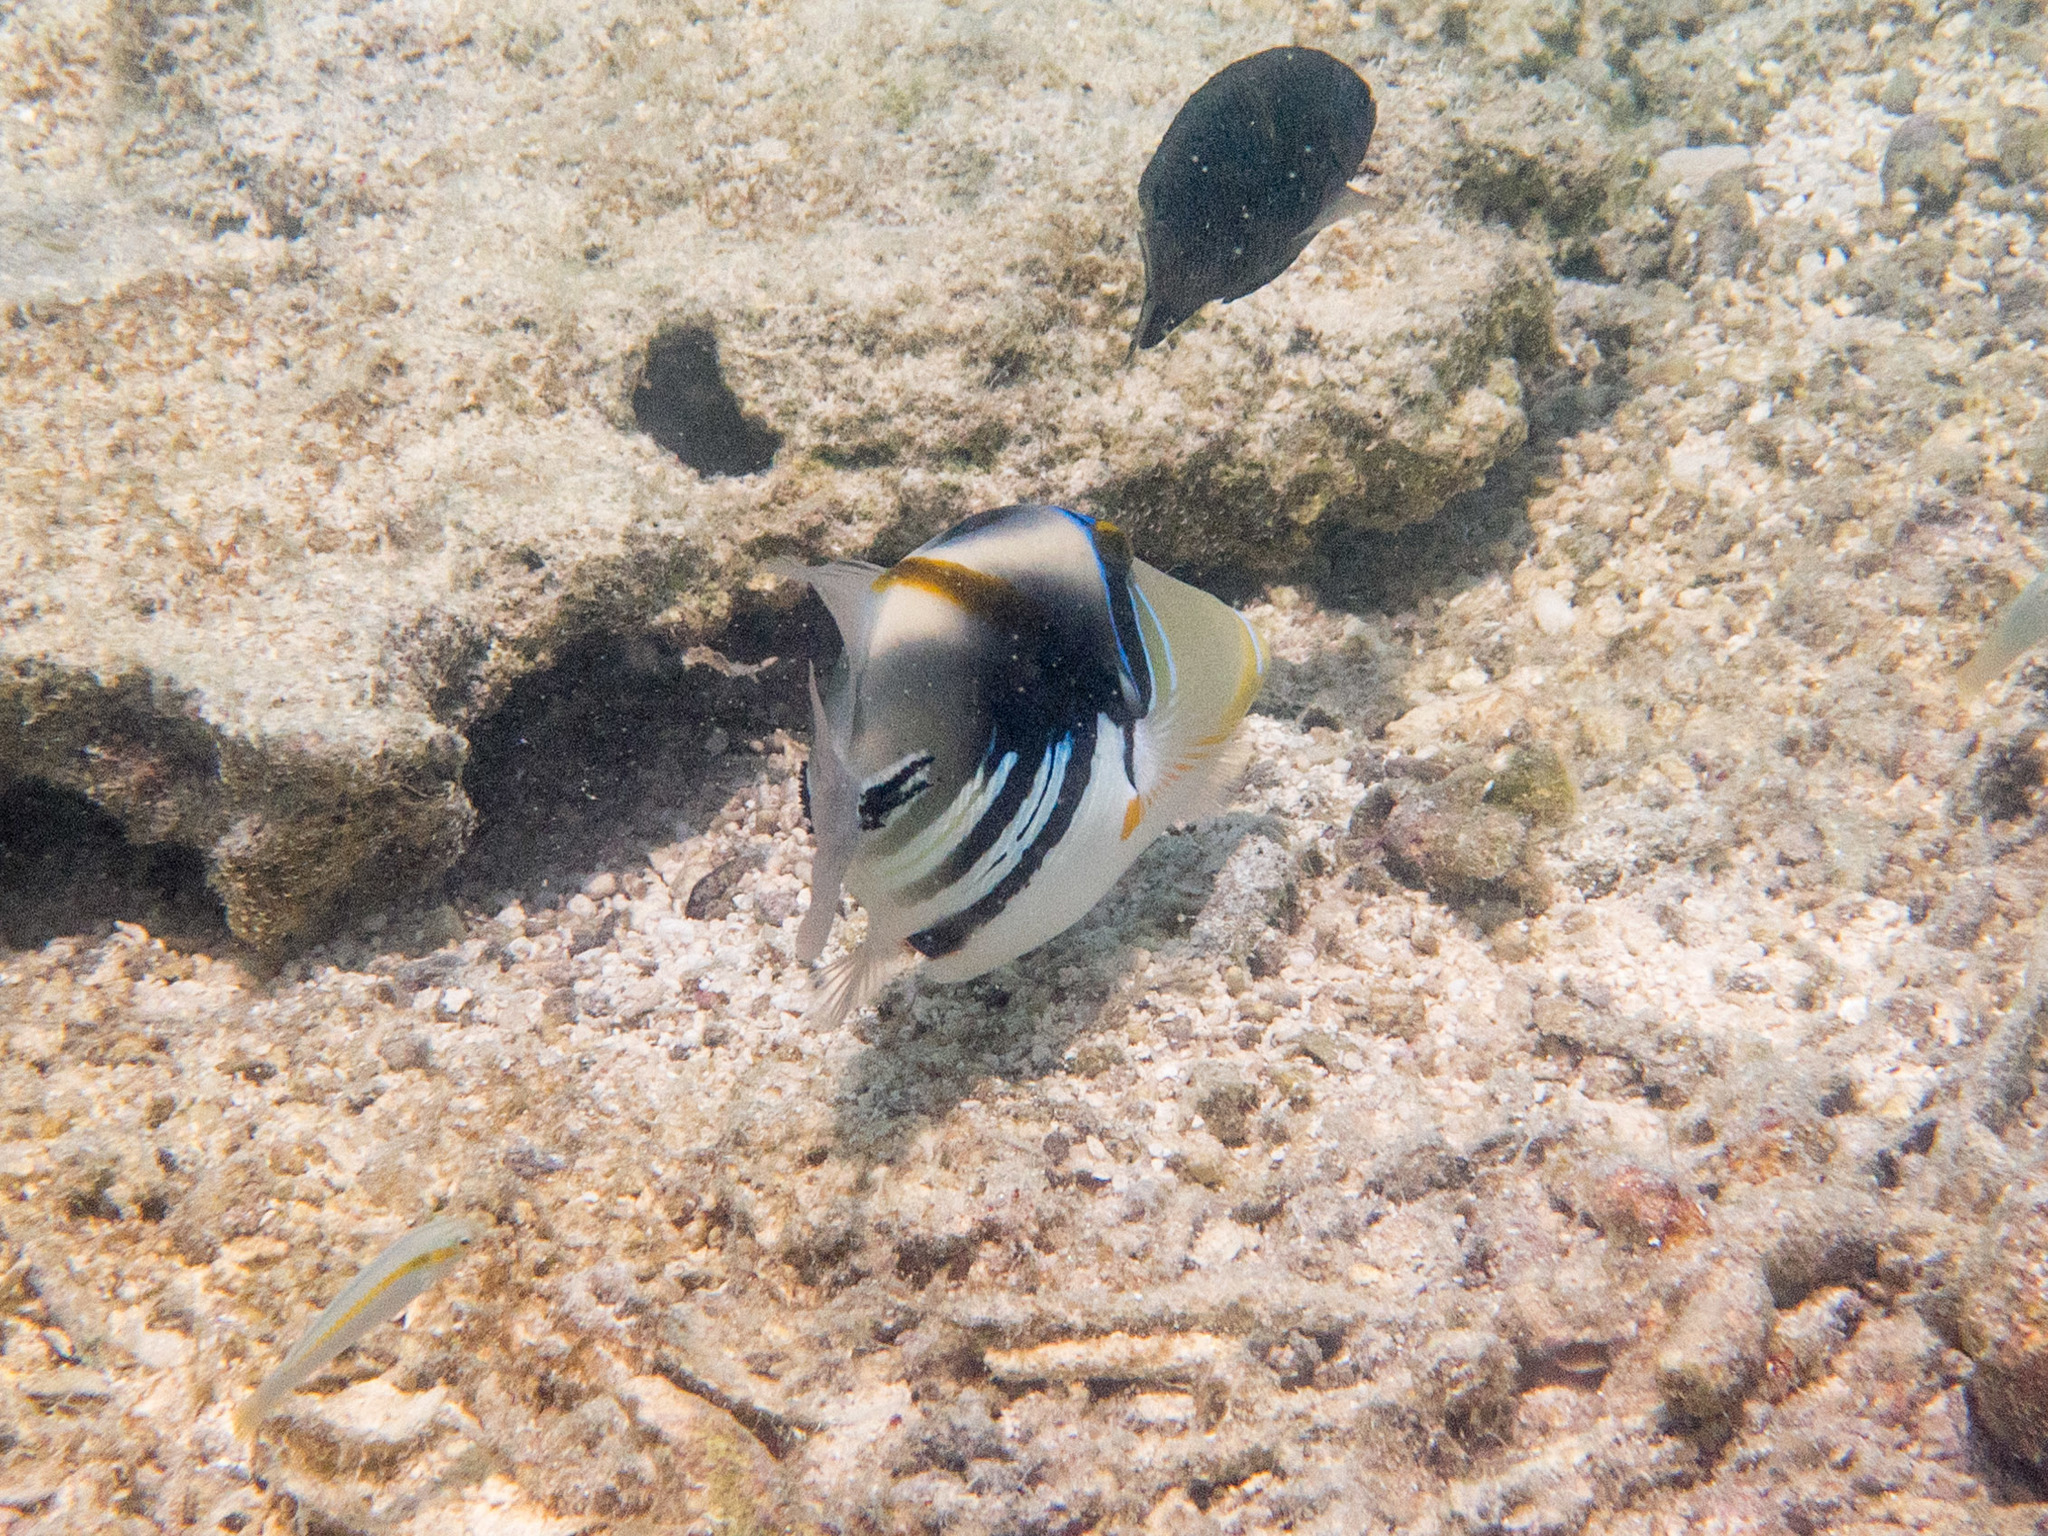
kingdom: Animalia
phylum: Chordata
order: Tetraodontiformes
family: Balistidae
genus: Rhinecanthus
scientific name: Rhinecanthus aculeatus
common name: White-banded triggerfish
